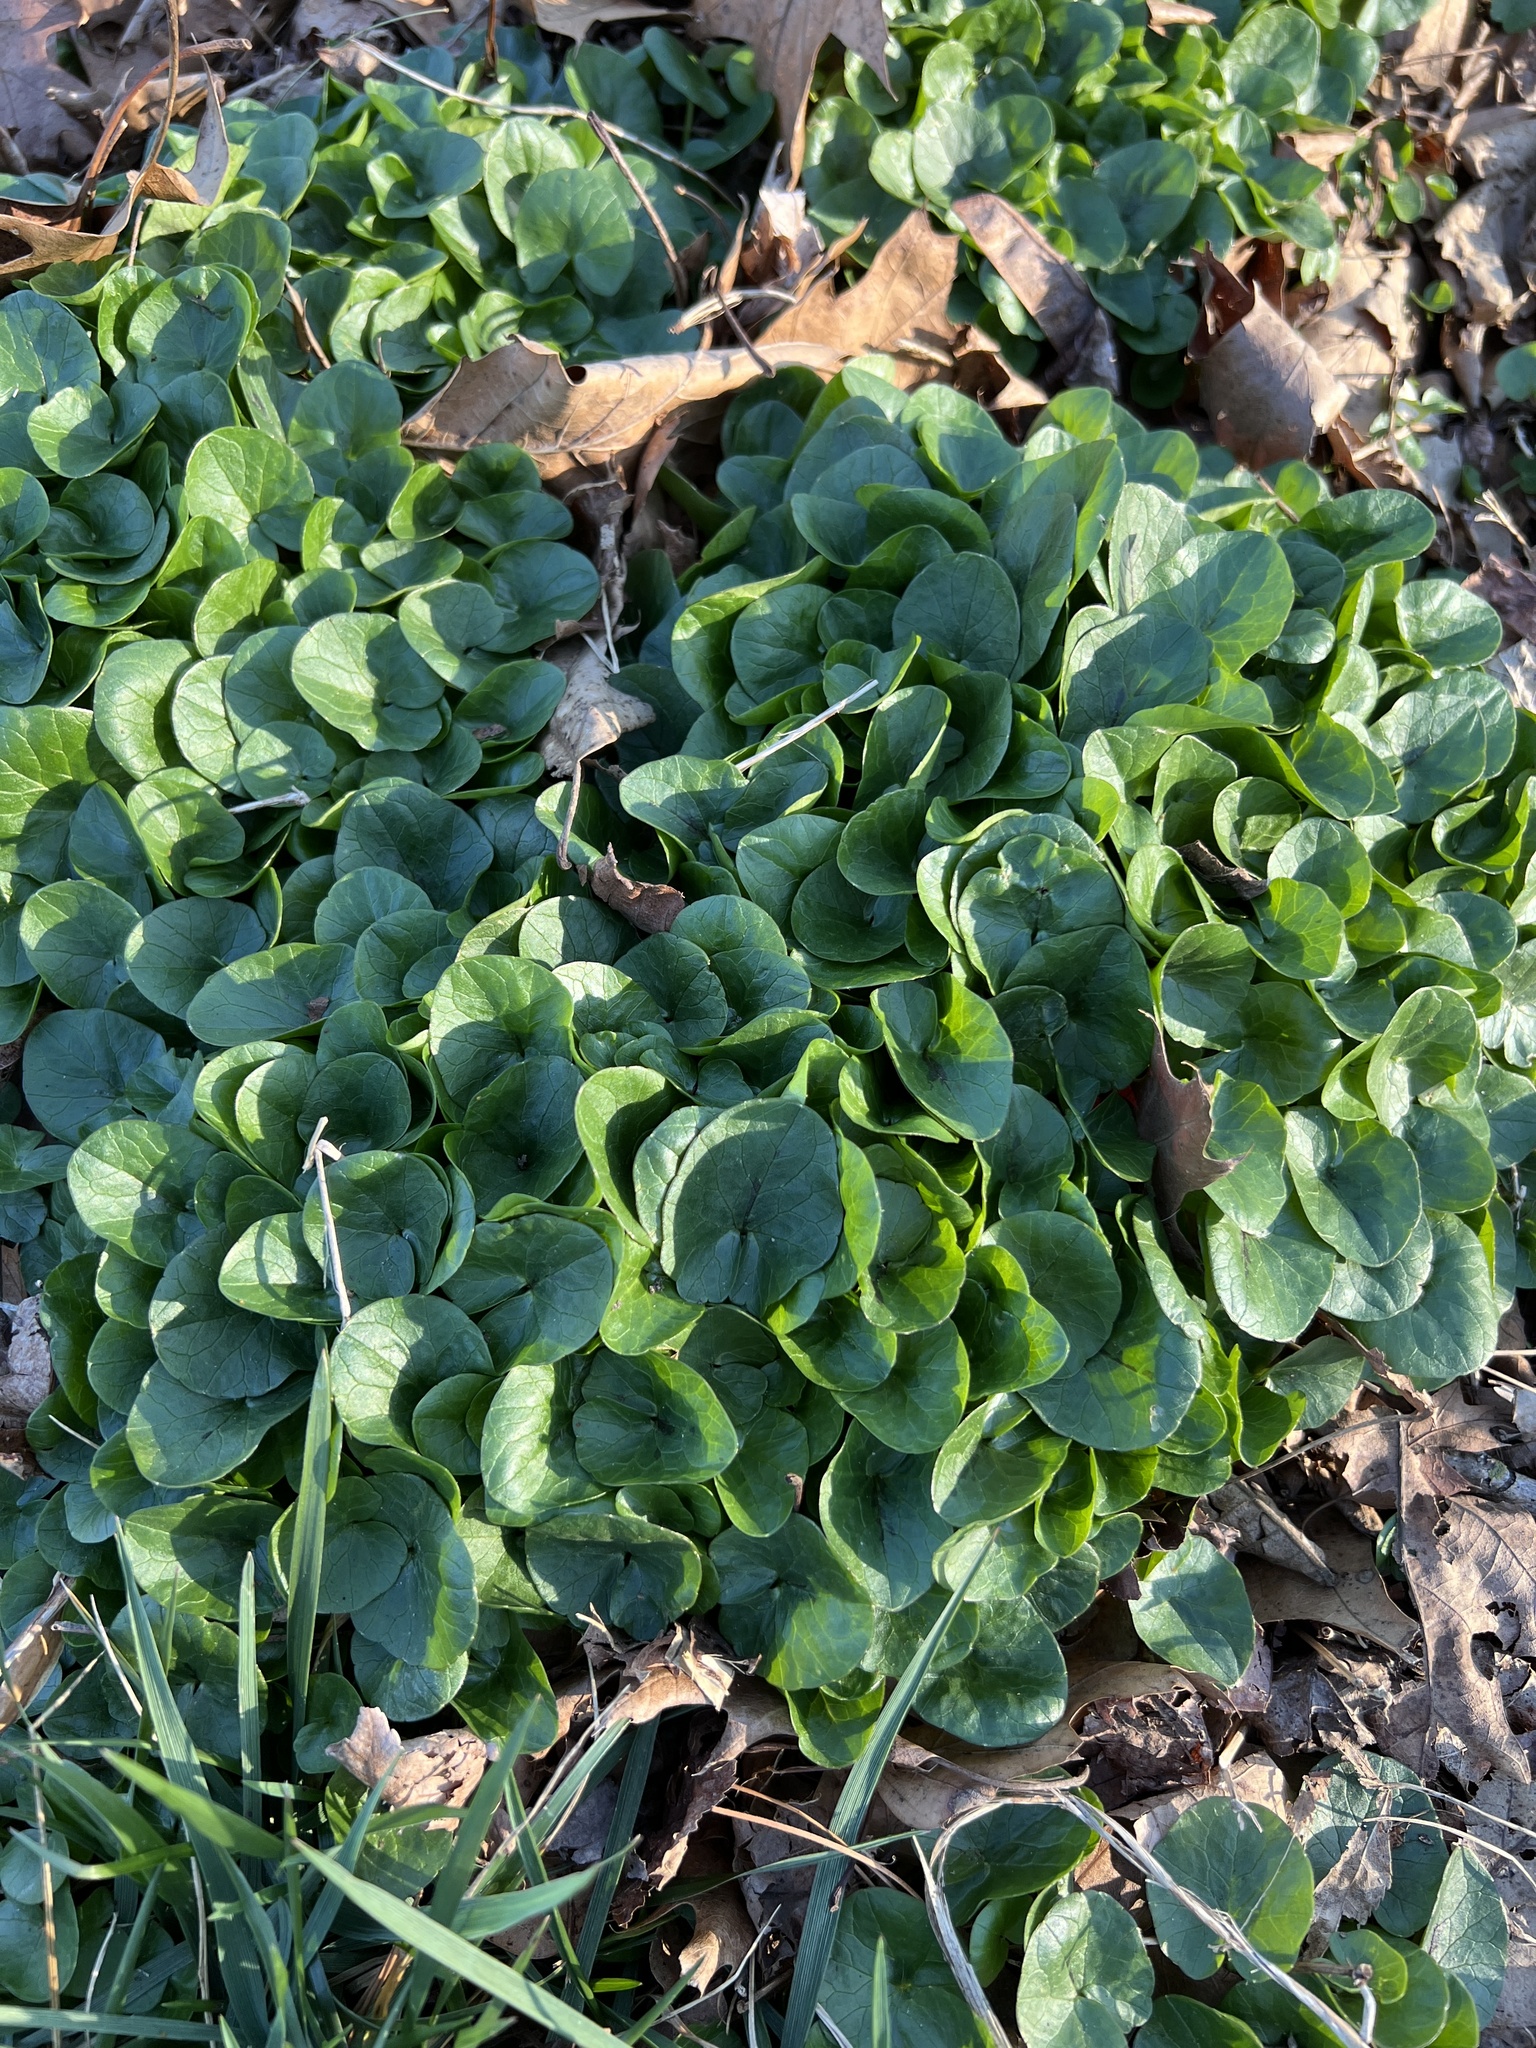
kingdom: Plantae
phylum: Tracheophyta
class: Magnoliopsida
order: Ranunculales
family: Ranunculaceae
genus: Ficaria
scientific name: Ficaria verna
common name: Lesser celandine
